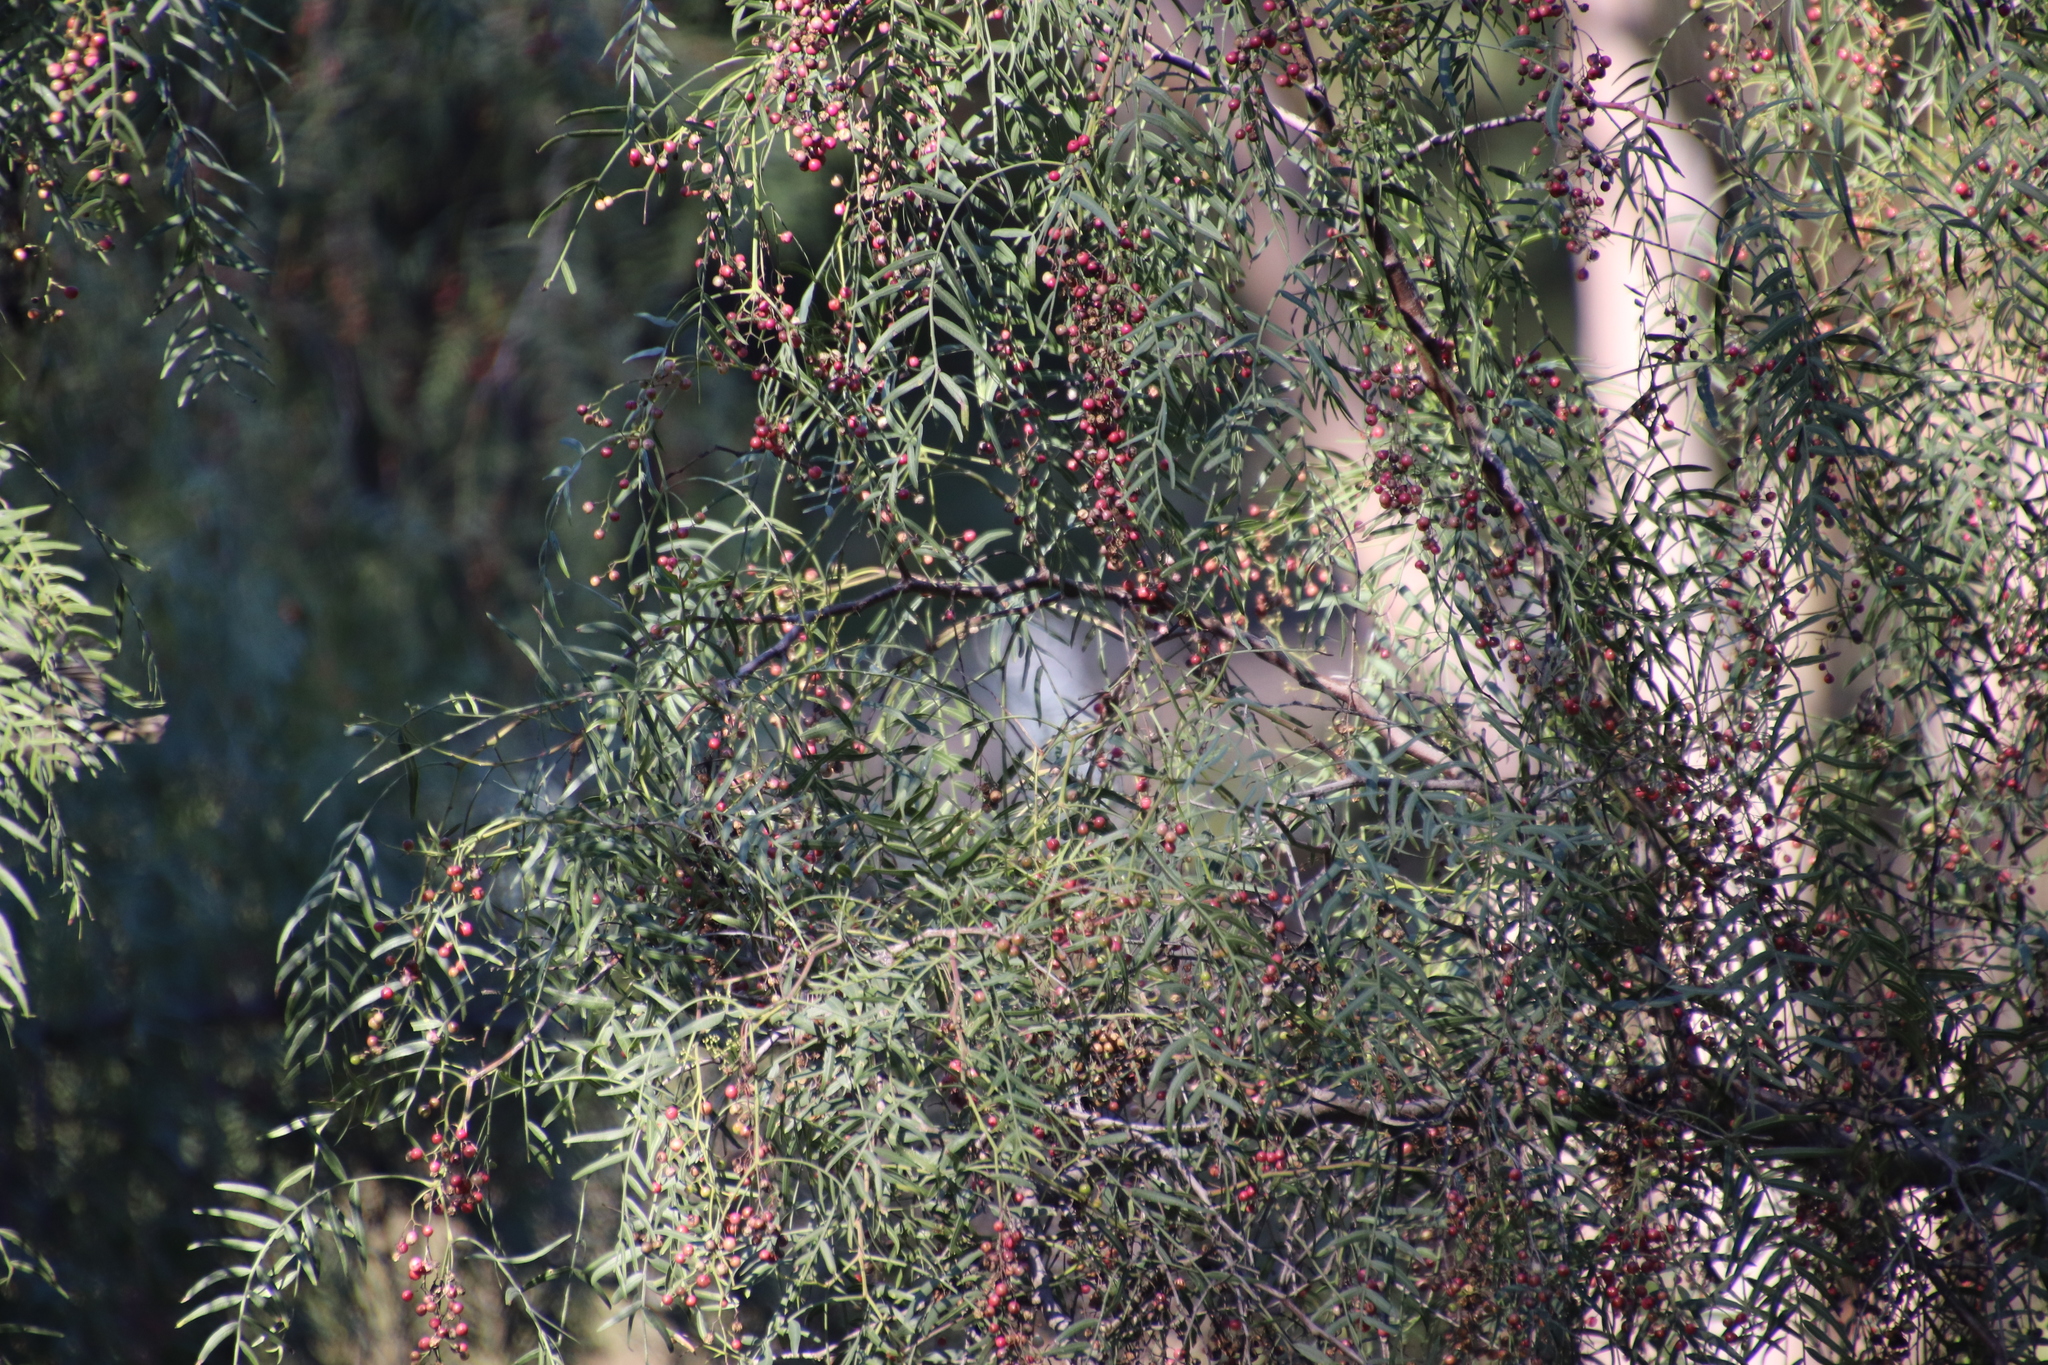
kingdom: Plantae
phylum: Tracheophyta
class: Magnoliopsida
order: Sapindales
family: Anacardiaceae
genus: Schinus
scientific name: Schinus molle
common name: Peruvian peppertree
